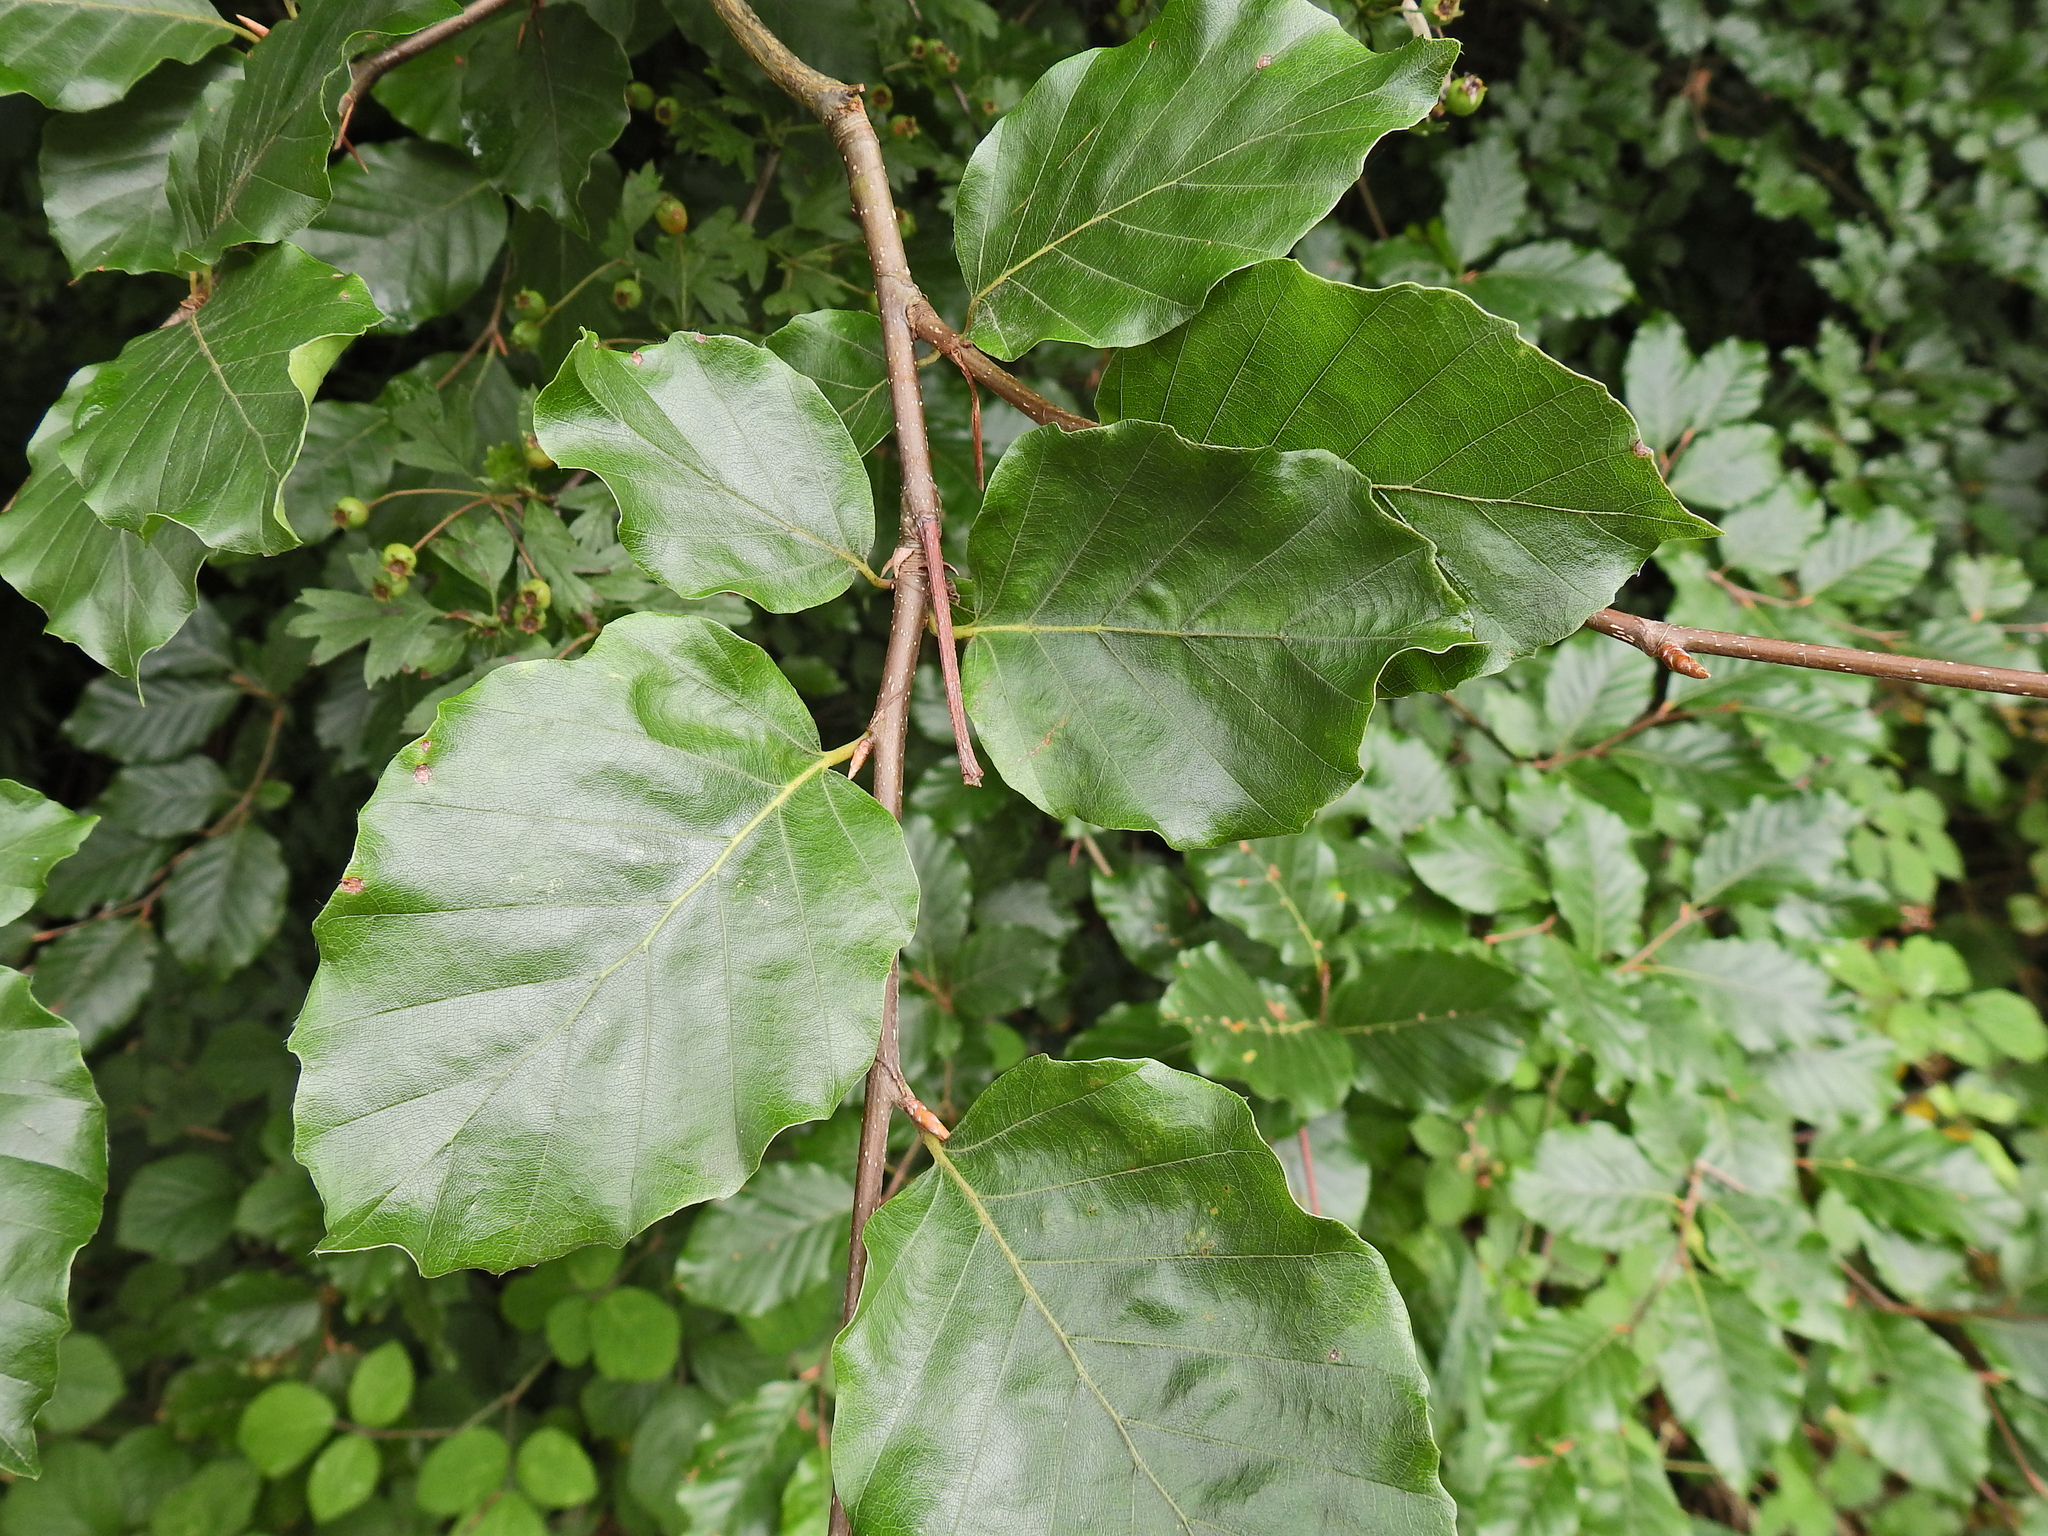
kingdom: Plantae
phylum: Tracheophyta
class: Magnoliopsida
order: Fagales
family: Fagaceae
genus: Fagus
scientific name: Fagus sylvatica
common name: Beech
